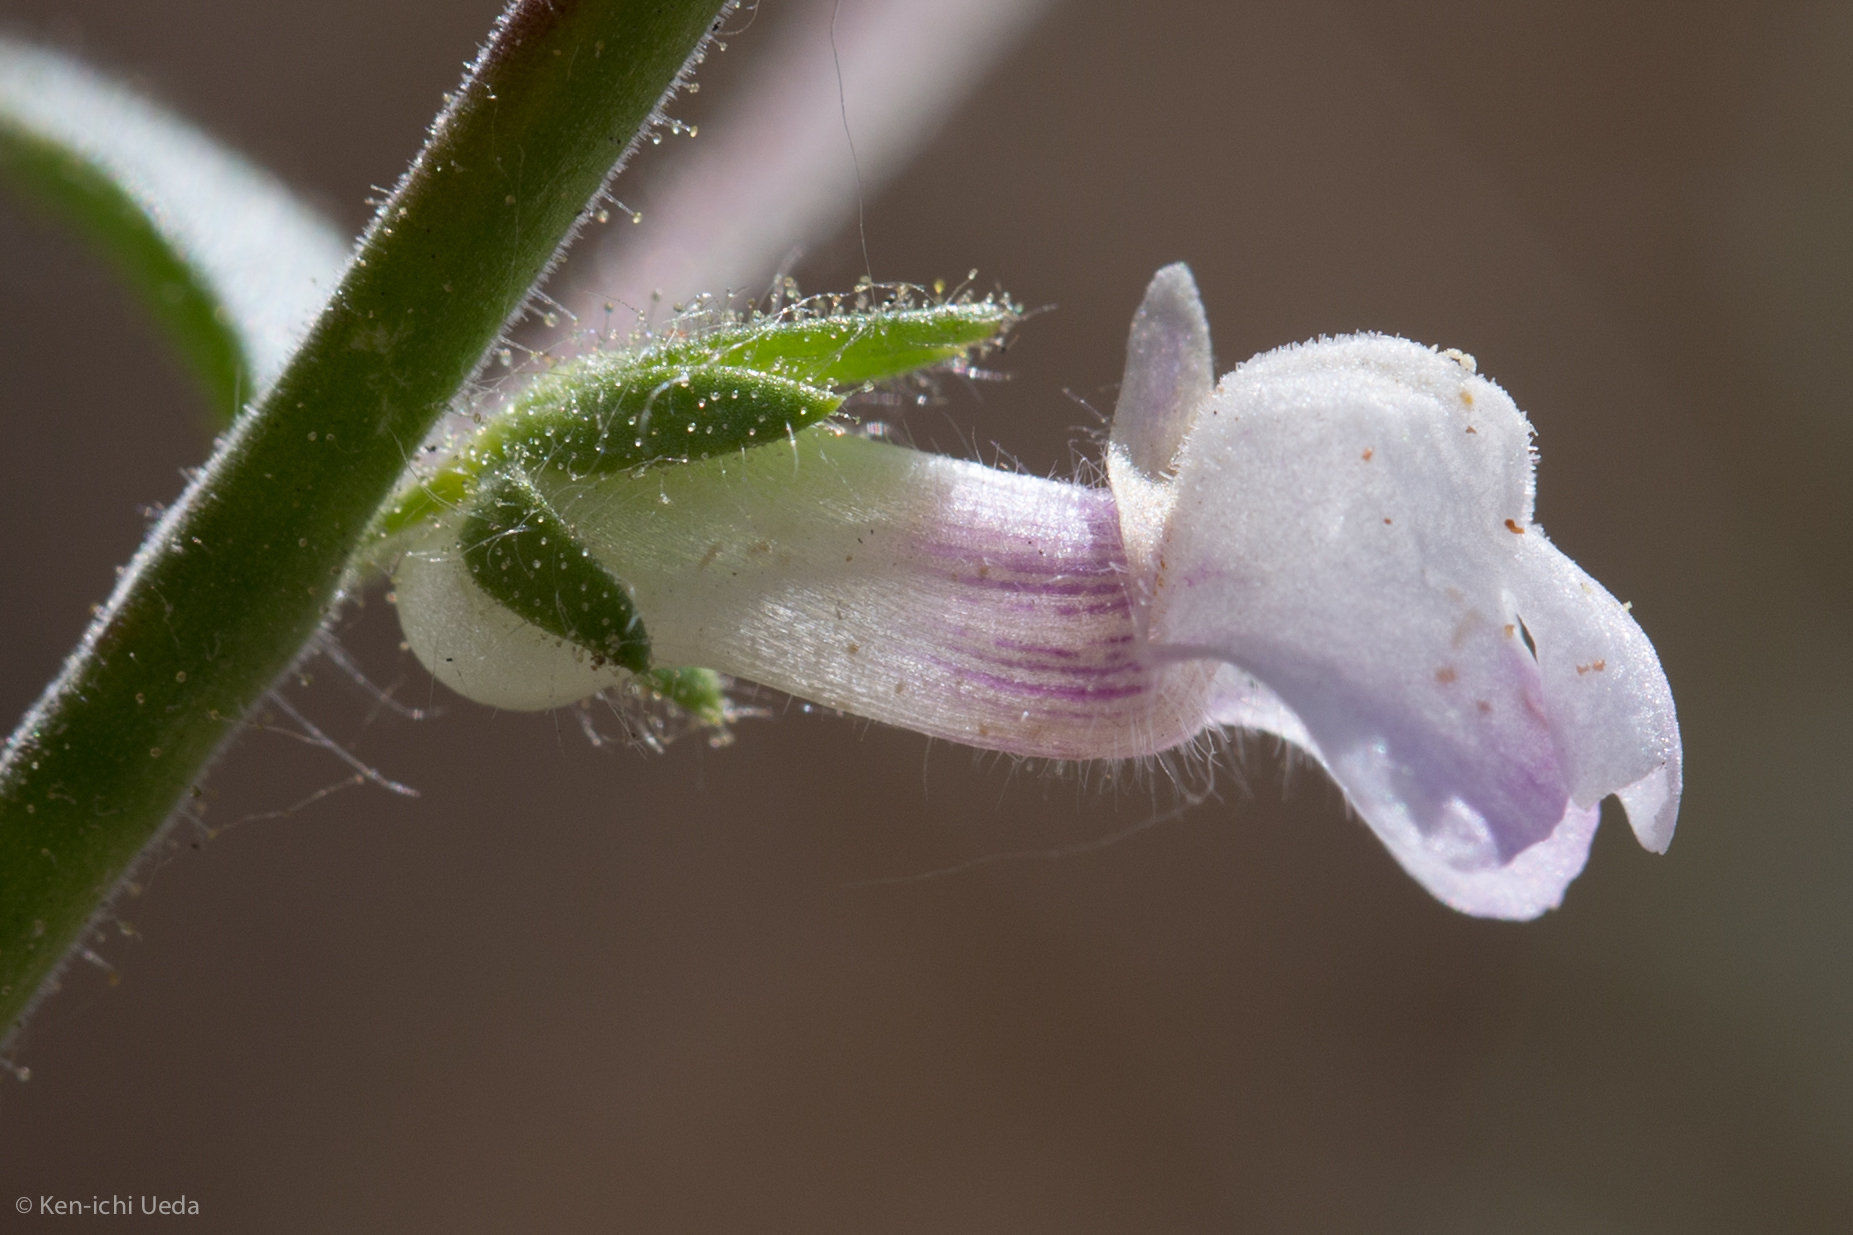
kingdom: Plantae
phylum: Tracheophyta
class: Magnoliopsida
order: Lamiales
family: Plantaginaceae
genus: Sairocarpus
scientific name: Sairocarpus vexillocalyculatus
